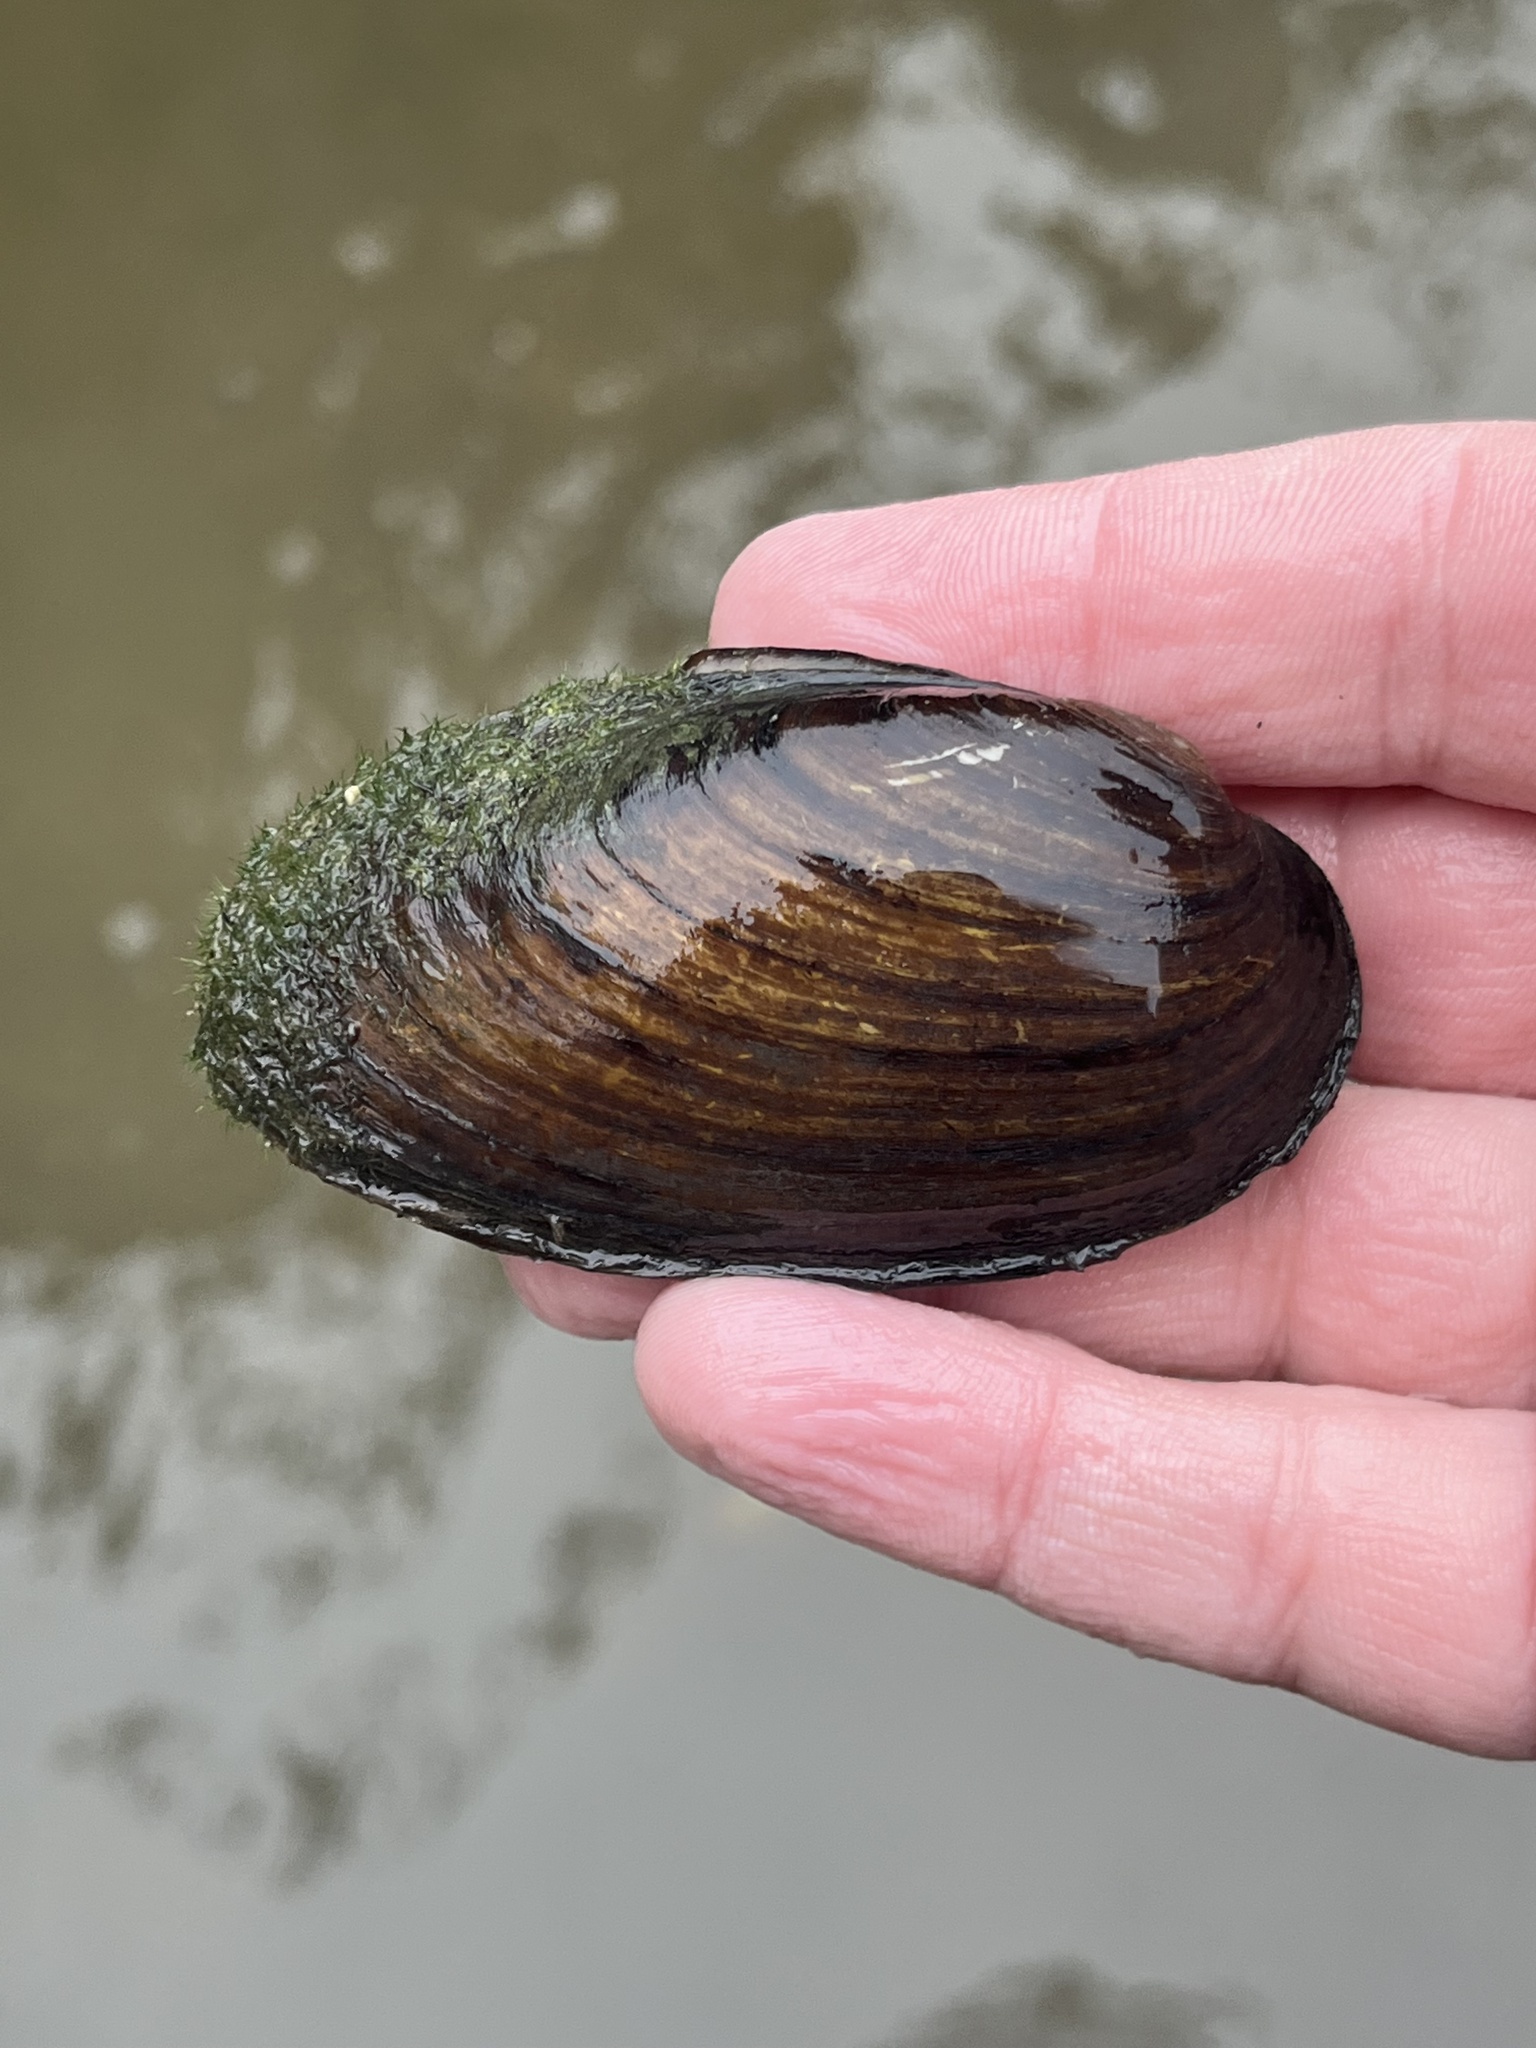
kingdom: Animalia
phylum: Mollusca
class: Bivalvia
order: Unionida
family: Unionidae
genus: Eurynia
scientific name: Eurynia dilatata
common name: Spike
